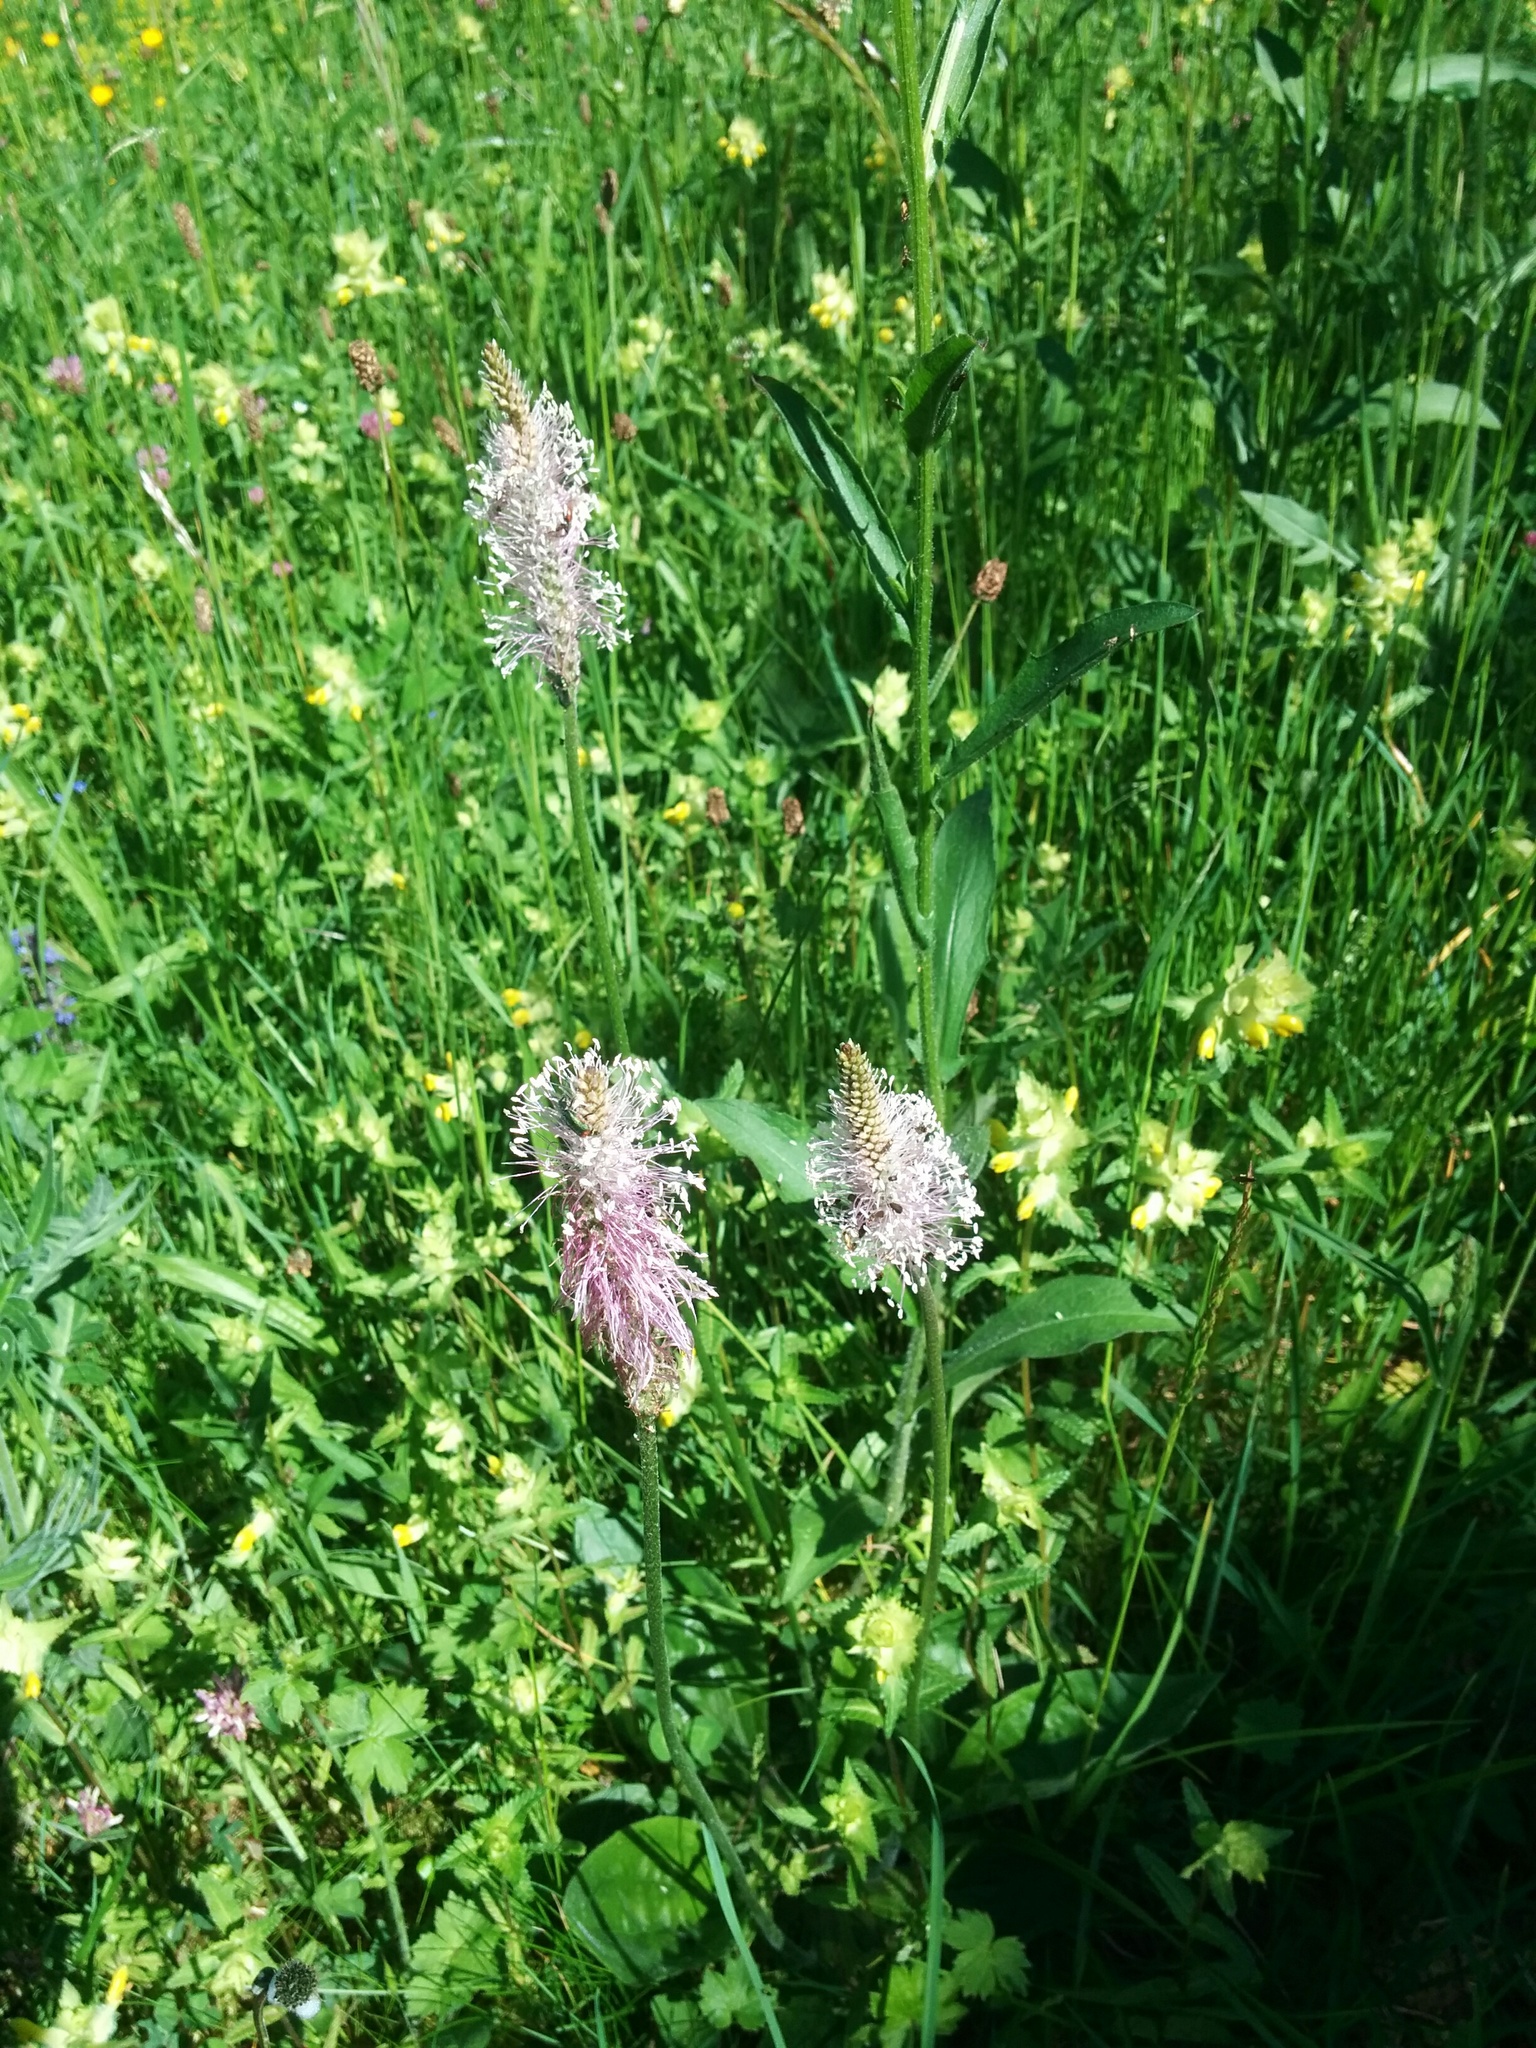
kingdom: Plantae
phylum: Tracheophyta
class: Magnoliopsida
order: Lamiales
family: Plantaginaceae
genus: Plantago
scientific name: Plantago media
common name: Hoary plantain
